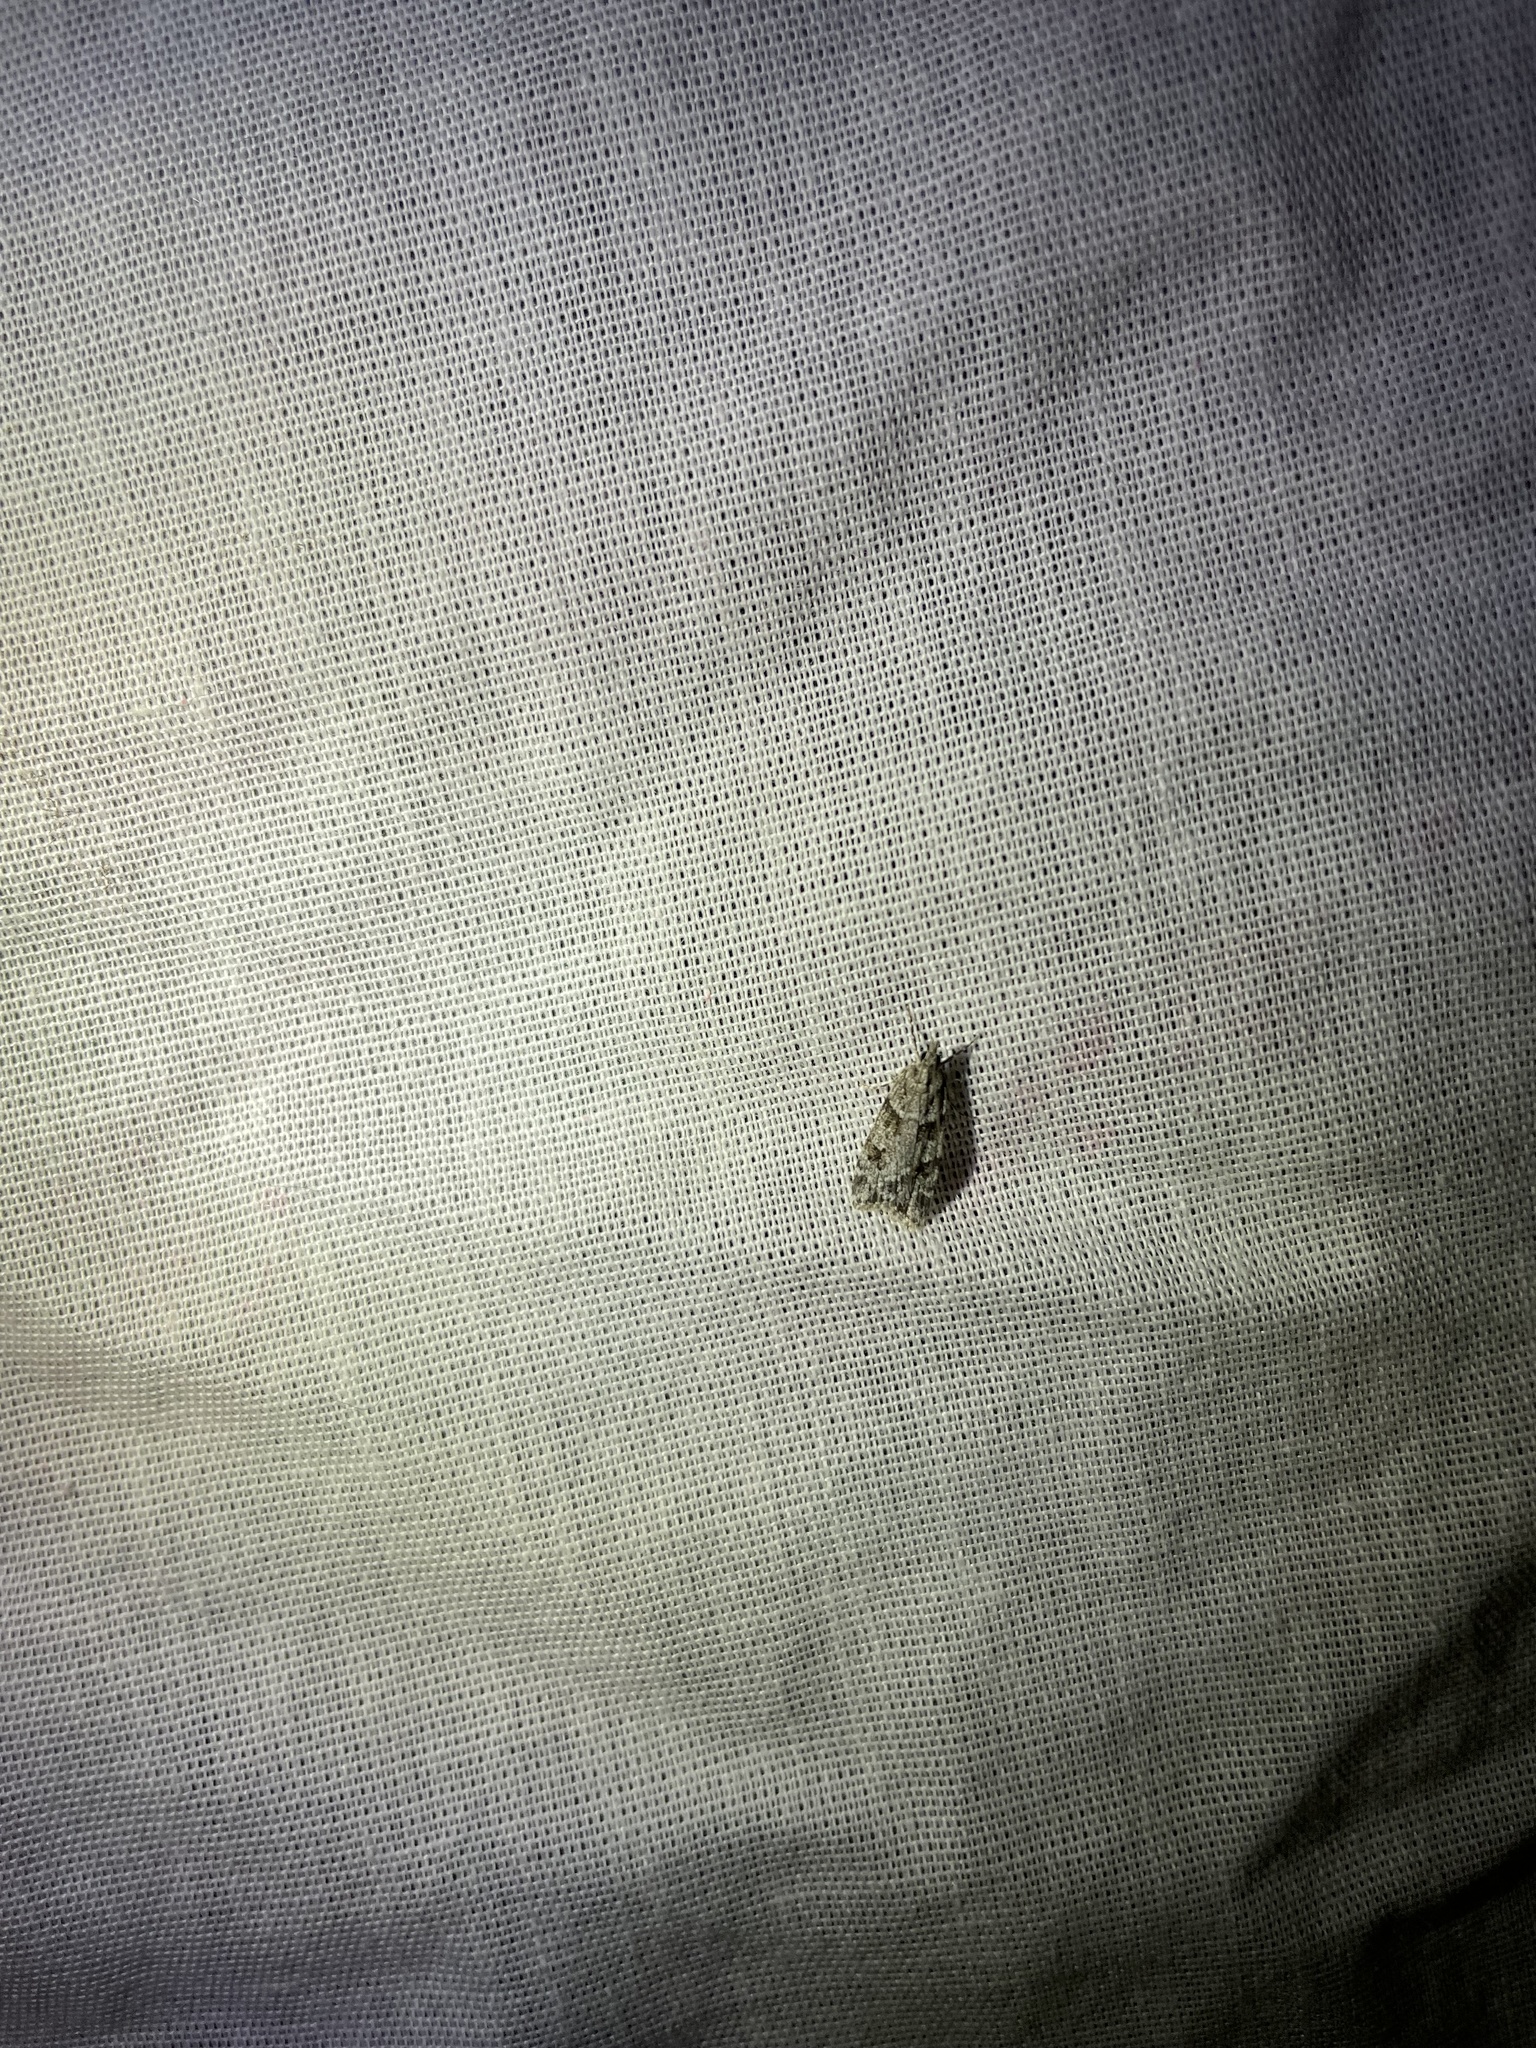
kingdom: Animalia
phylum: Arthropoda
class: Insecta
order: Lepidoptera
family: Crambidae
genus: Scoparia
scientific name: Scoparia biplagialis
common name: Double-striped scoparia moth
